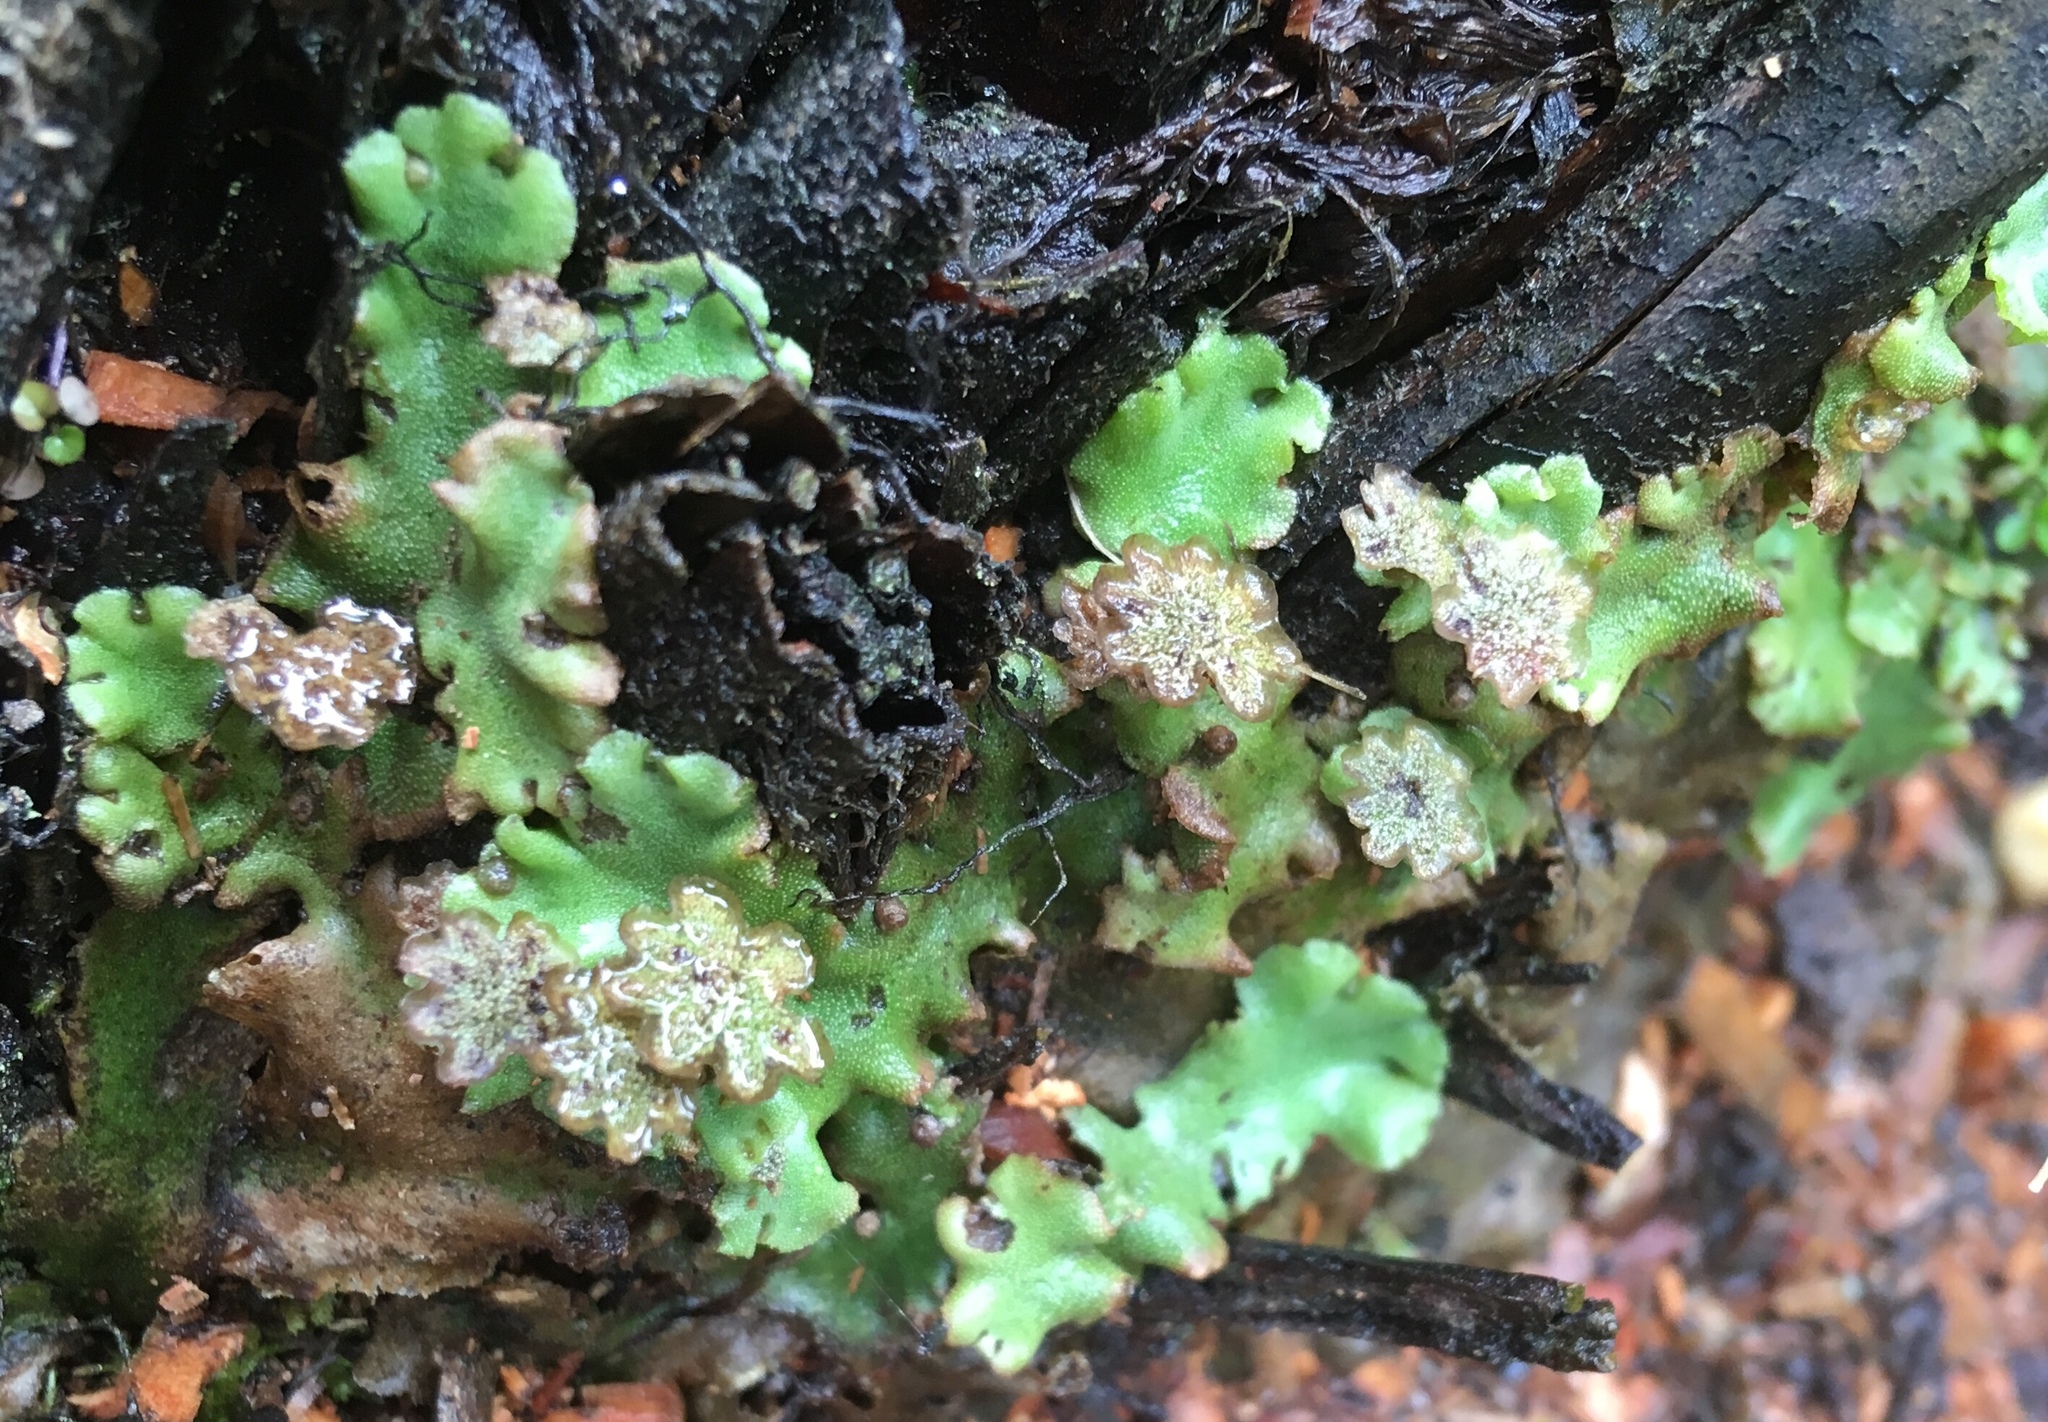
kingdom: Plantae
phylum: Marchantiophyta
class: Marchantiopsida
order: Marchantiales
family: Marchantiaceae
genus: Marchantia
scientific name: Marchantia polymorpha
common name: Common liverwort
